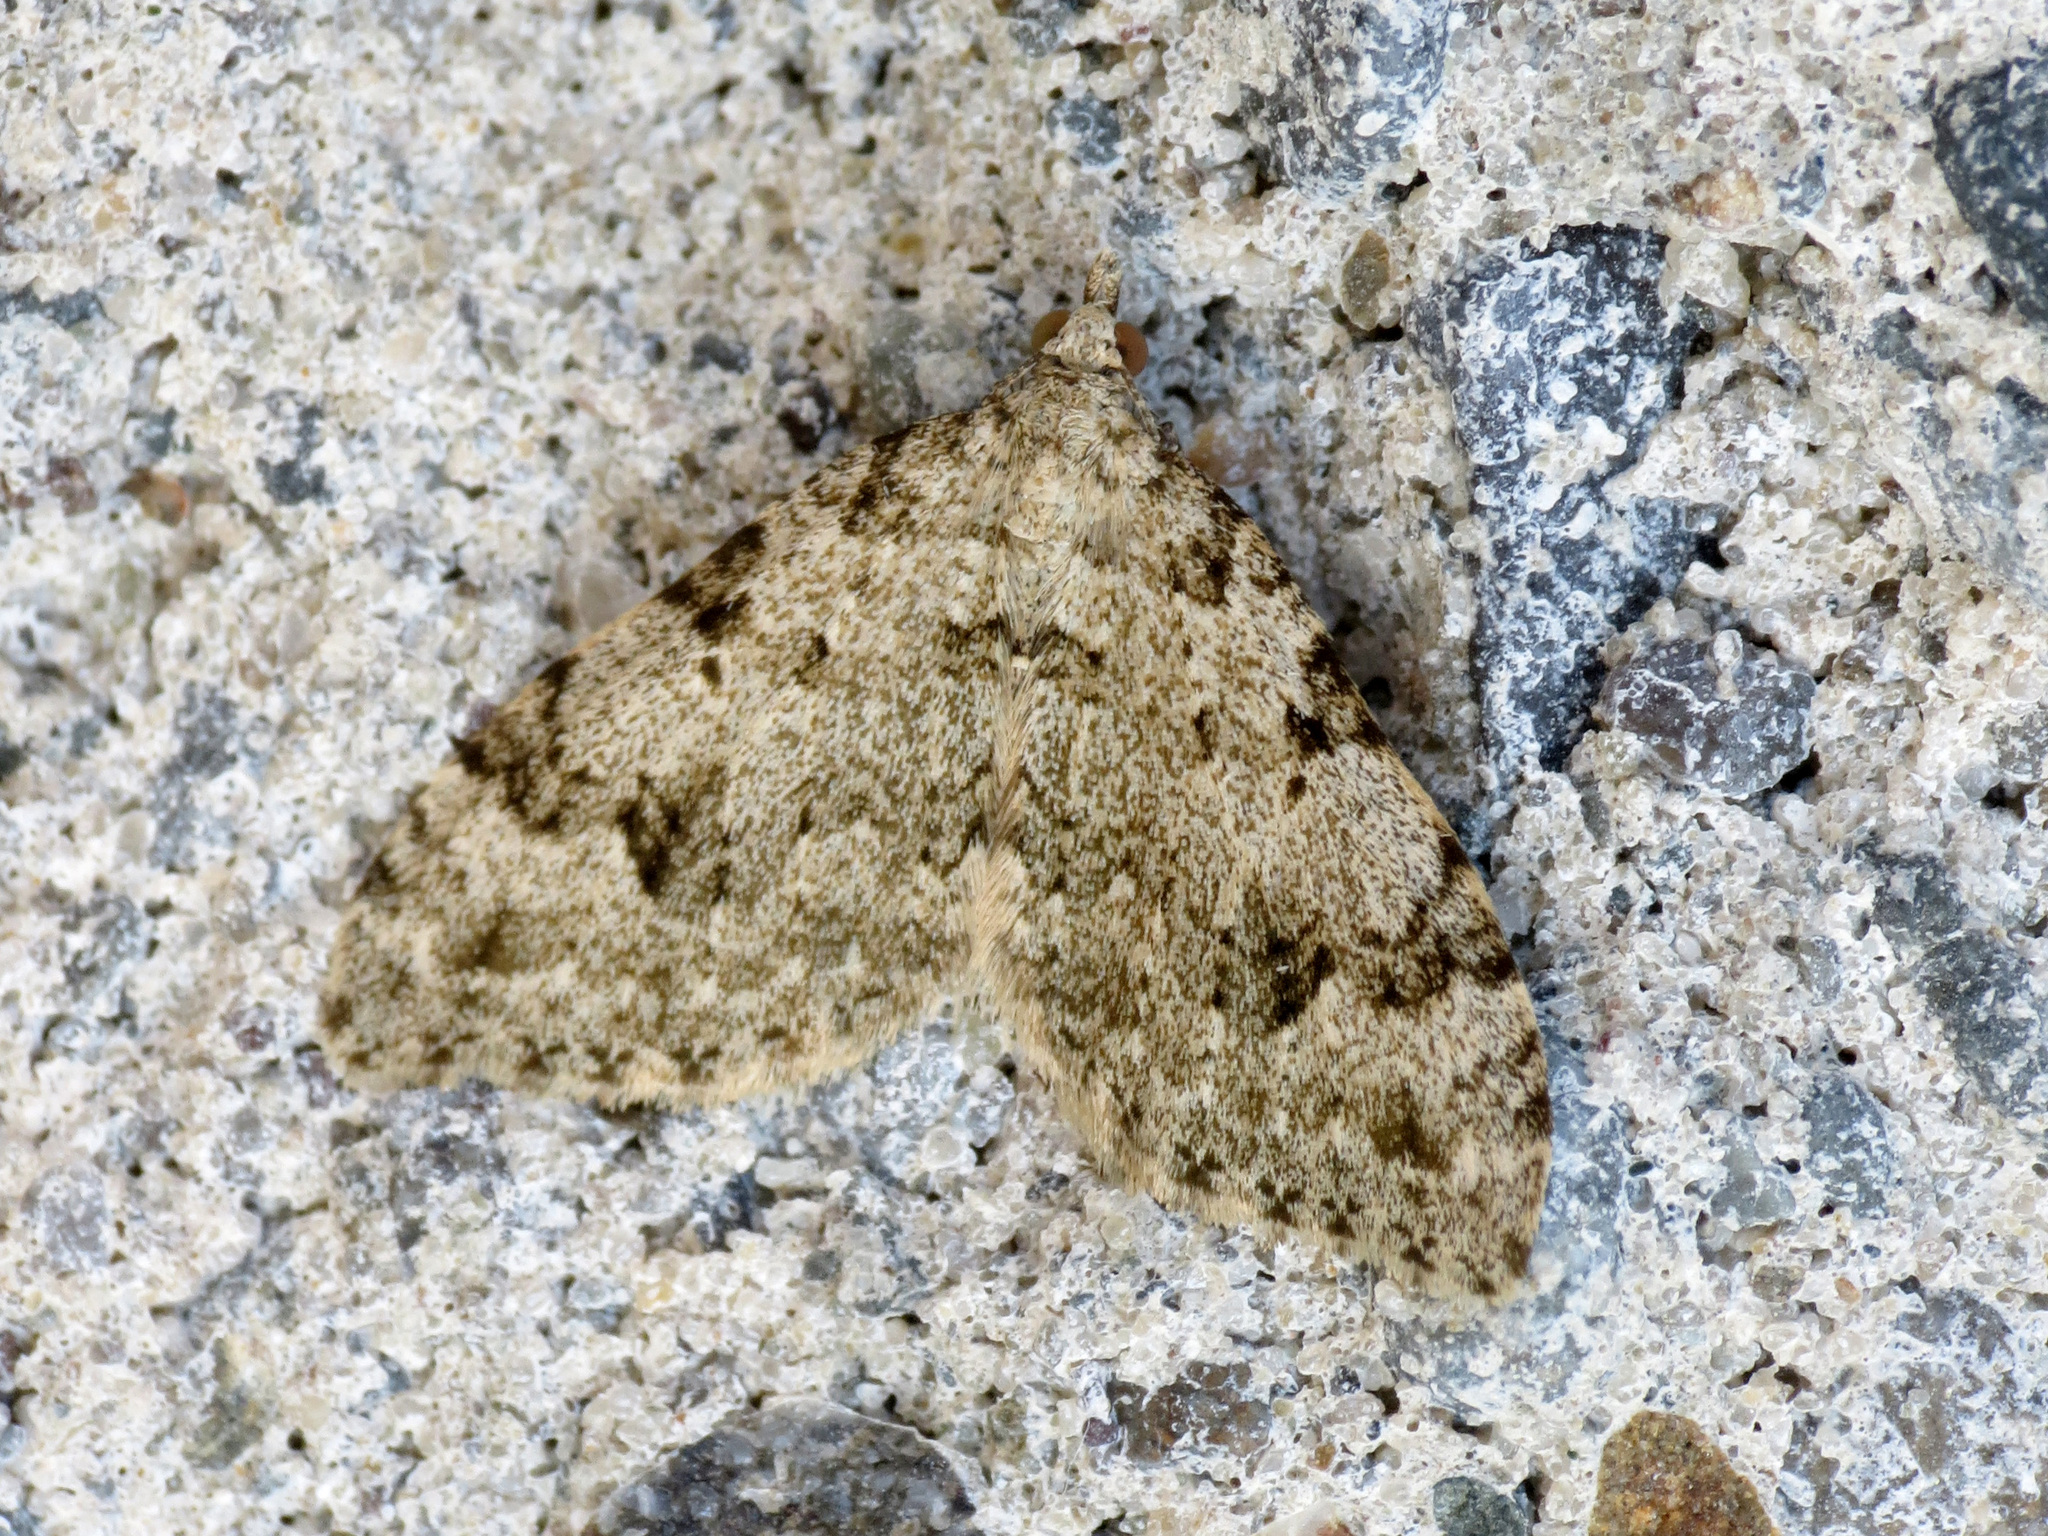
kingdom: Animalia
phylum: Arthropoda
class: Insecta
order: Lepidoptera
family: Geometridae
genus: Helastia
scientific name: Helastia cinerearia
